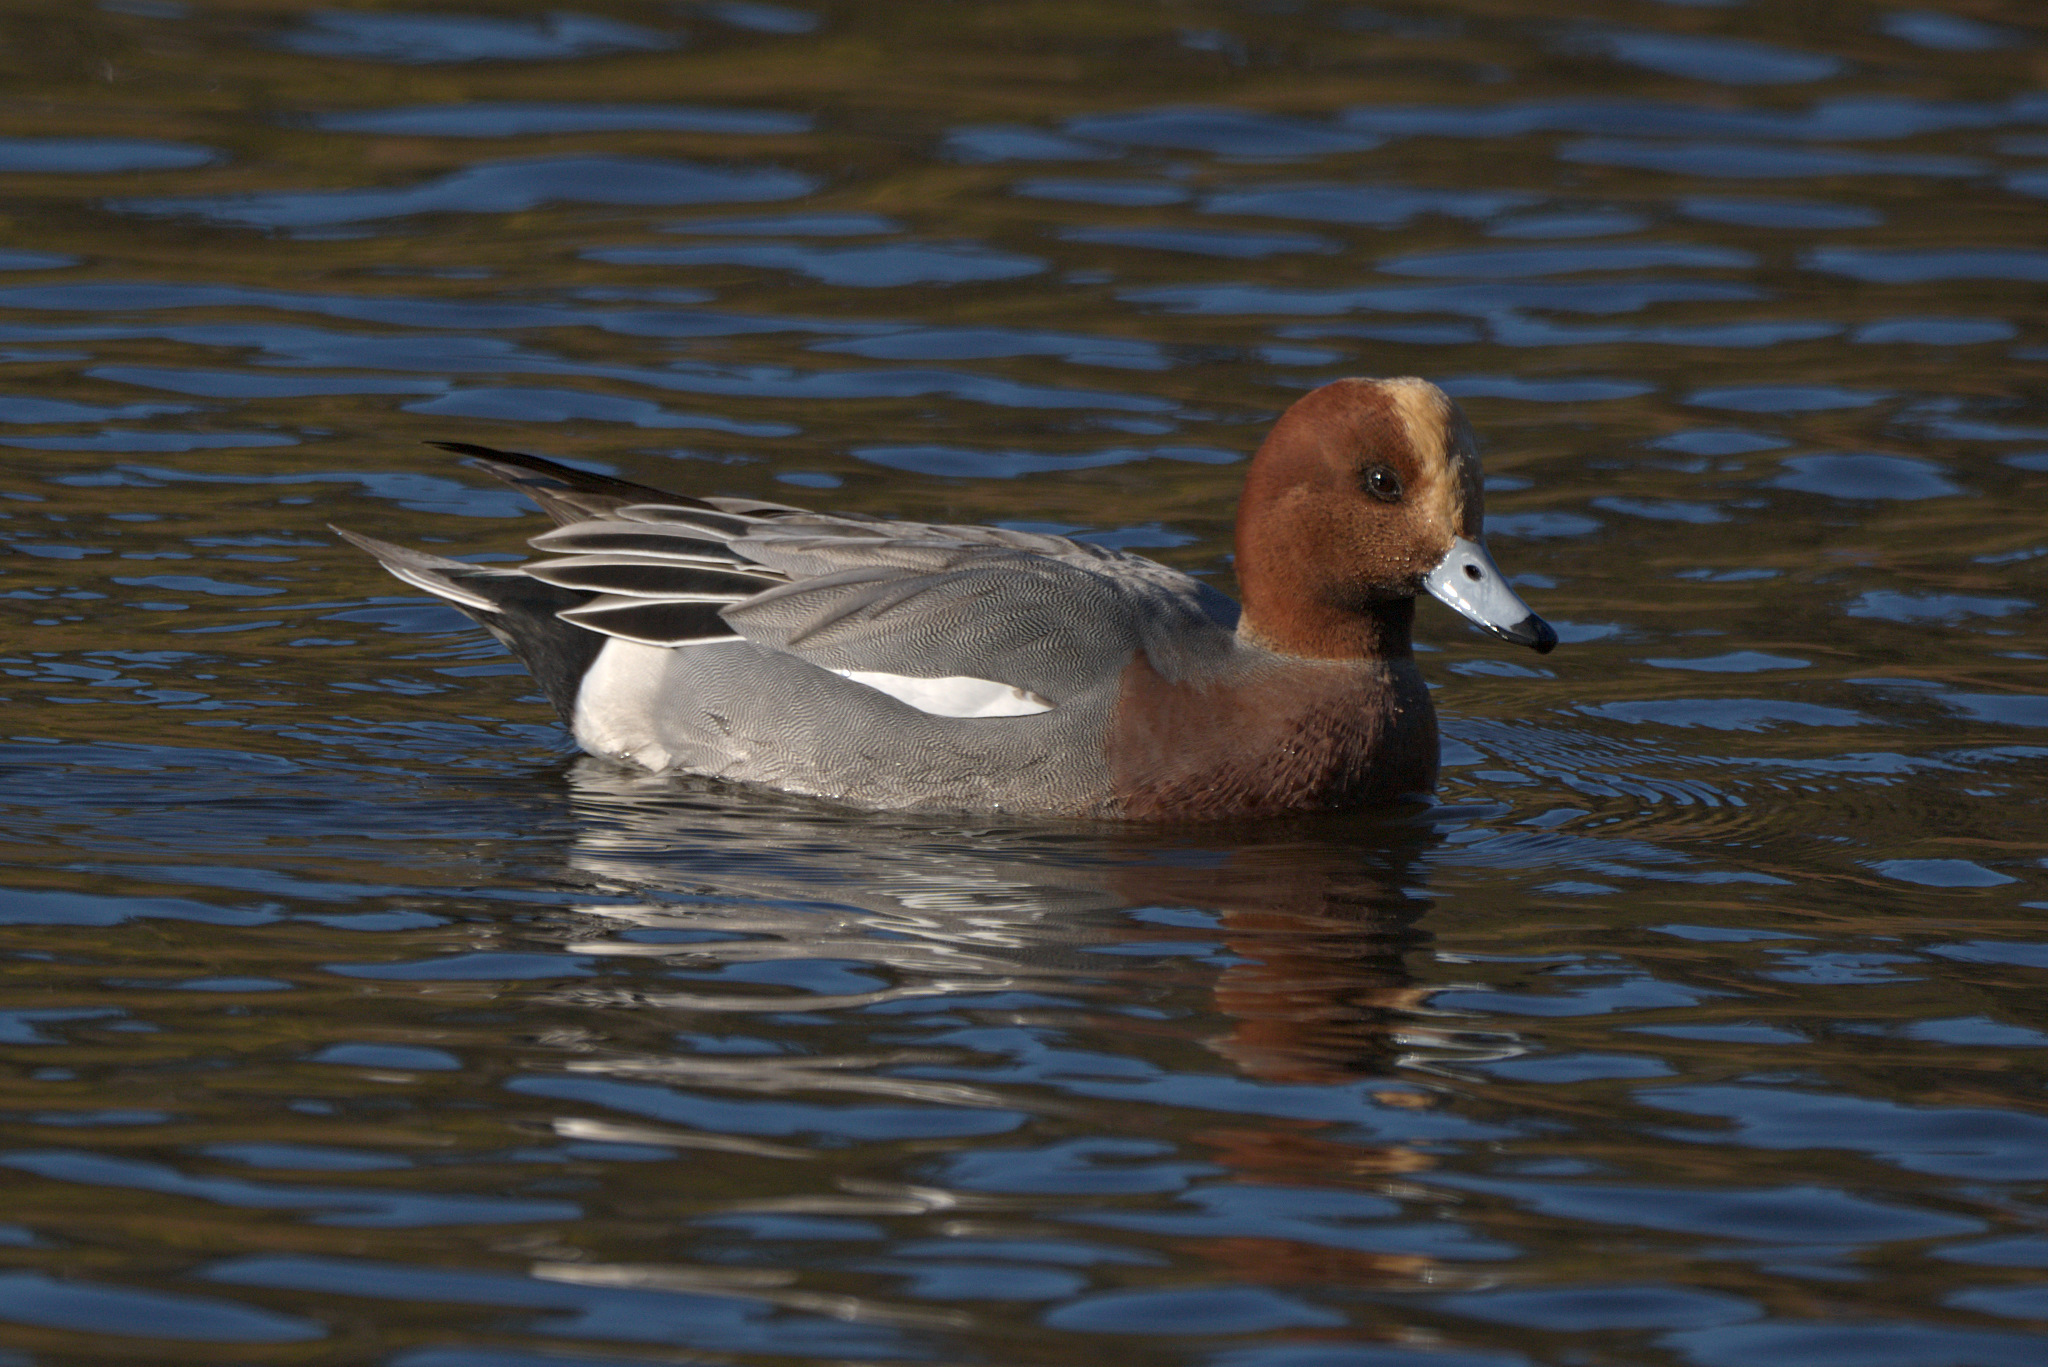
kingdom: Animalia
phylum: Chordata
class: Aves
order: Anseriformes
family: Anatidae
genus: Mareca
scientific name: Mareca penelope
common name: Eurasian wigeon
